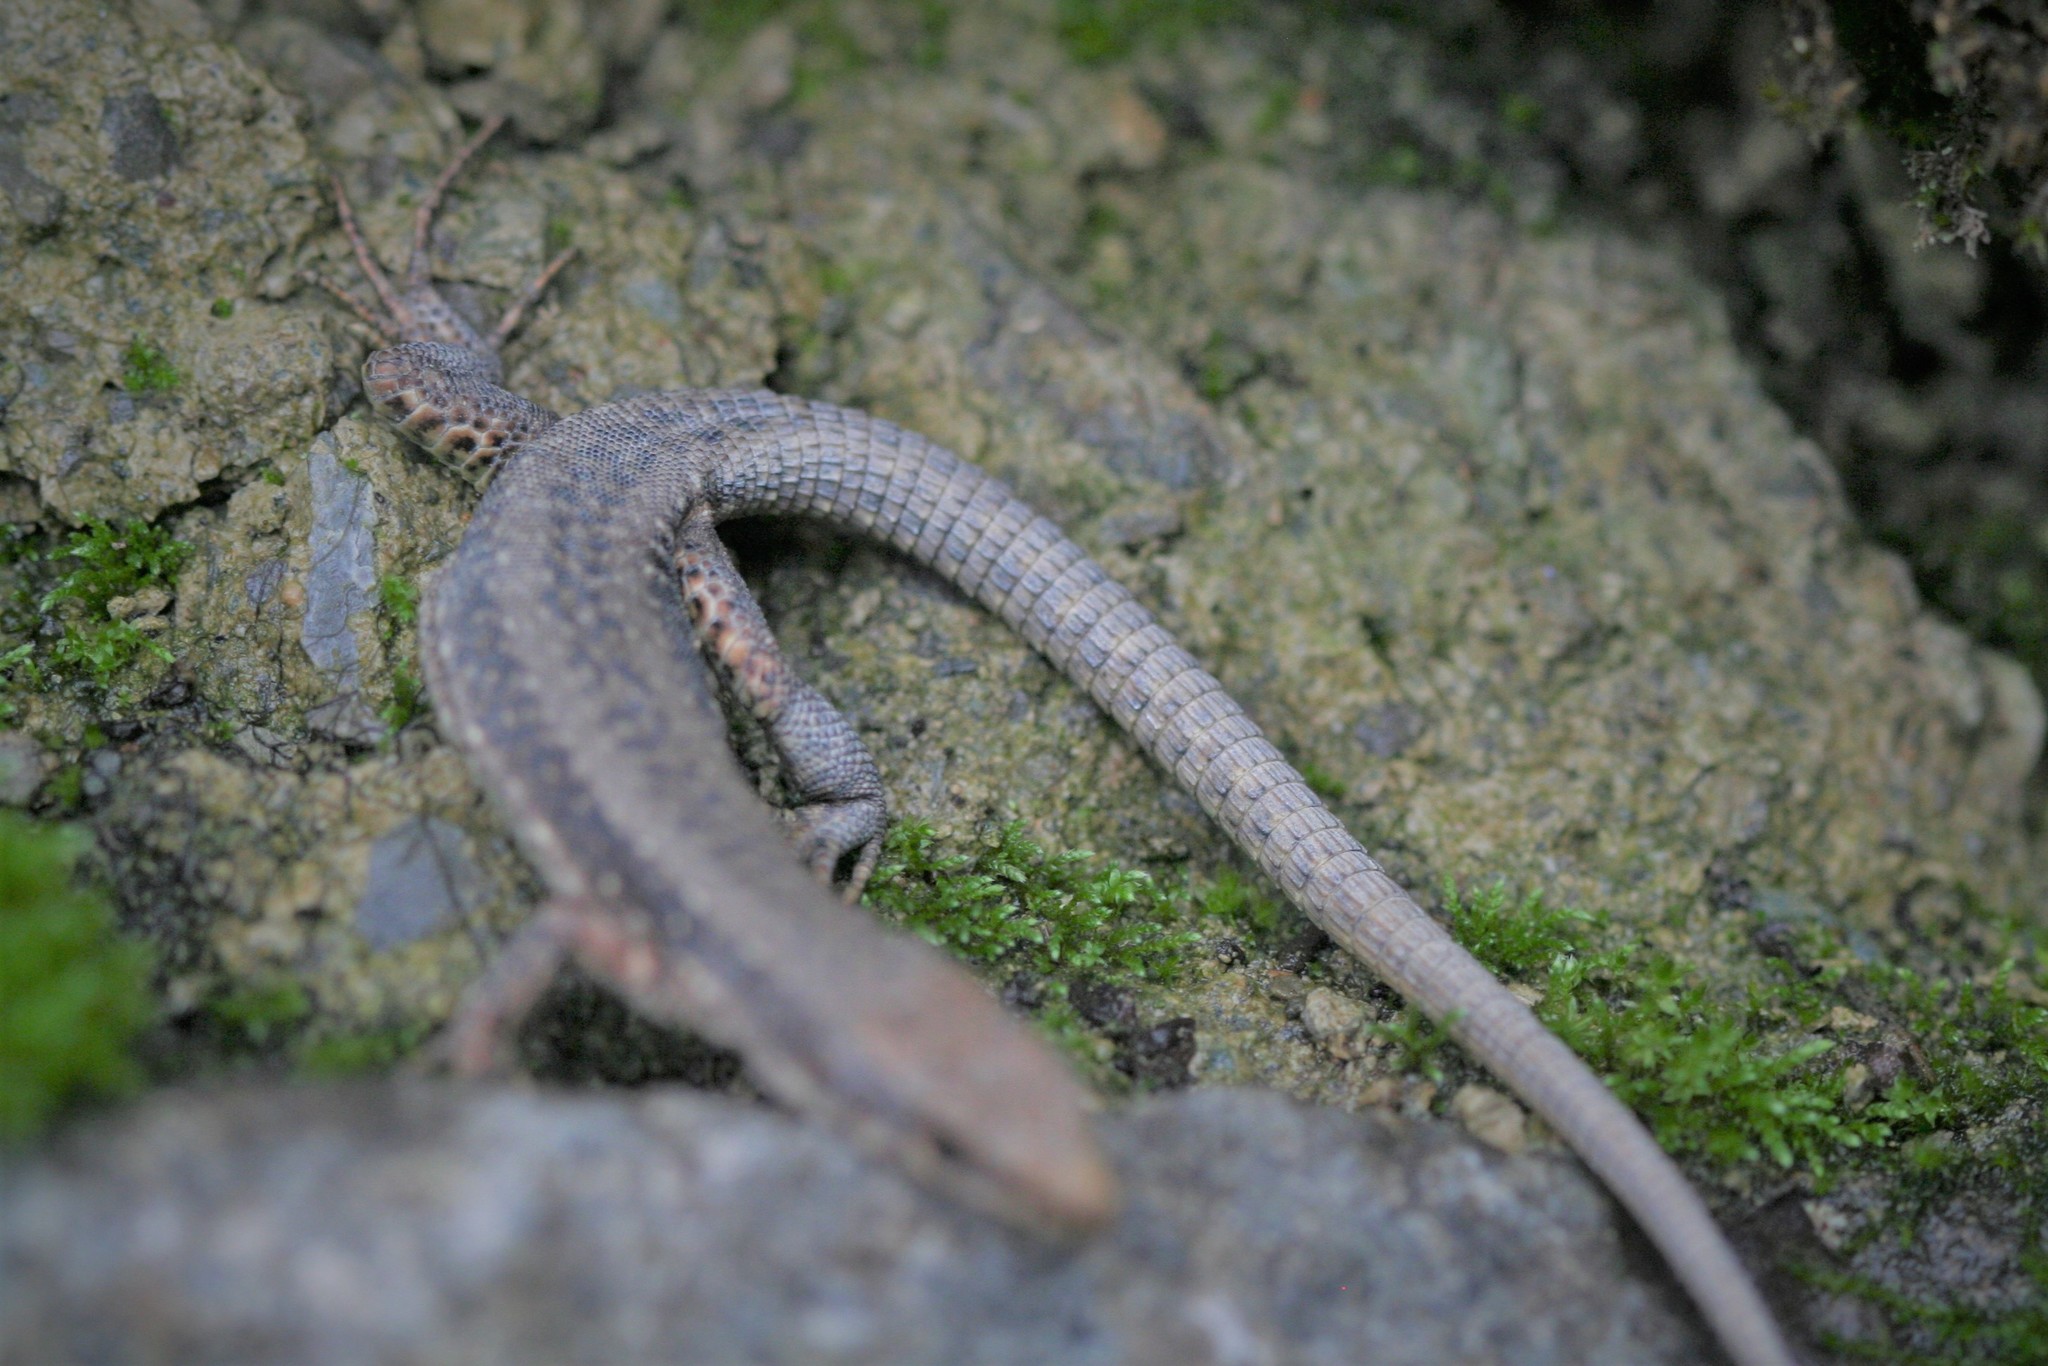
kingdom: Animalia
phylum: Chordata
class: Squamata
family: Lacertidae
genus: Darevskia
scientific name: Darevskia rudis
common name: Spiny-tailed lizard
